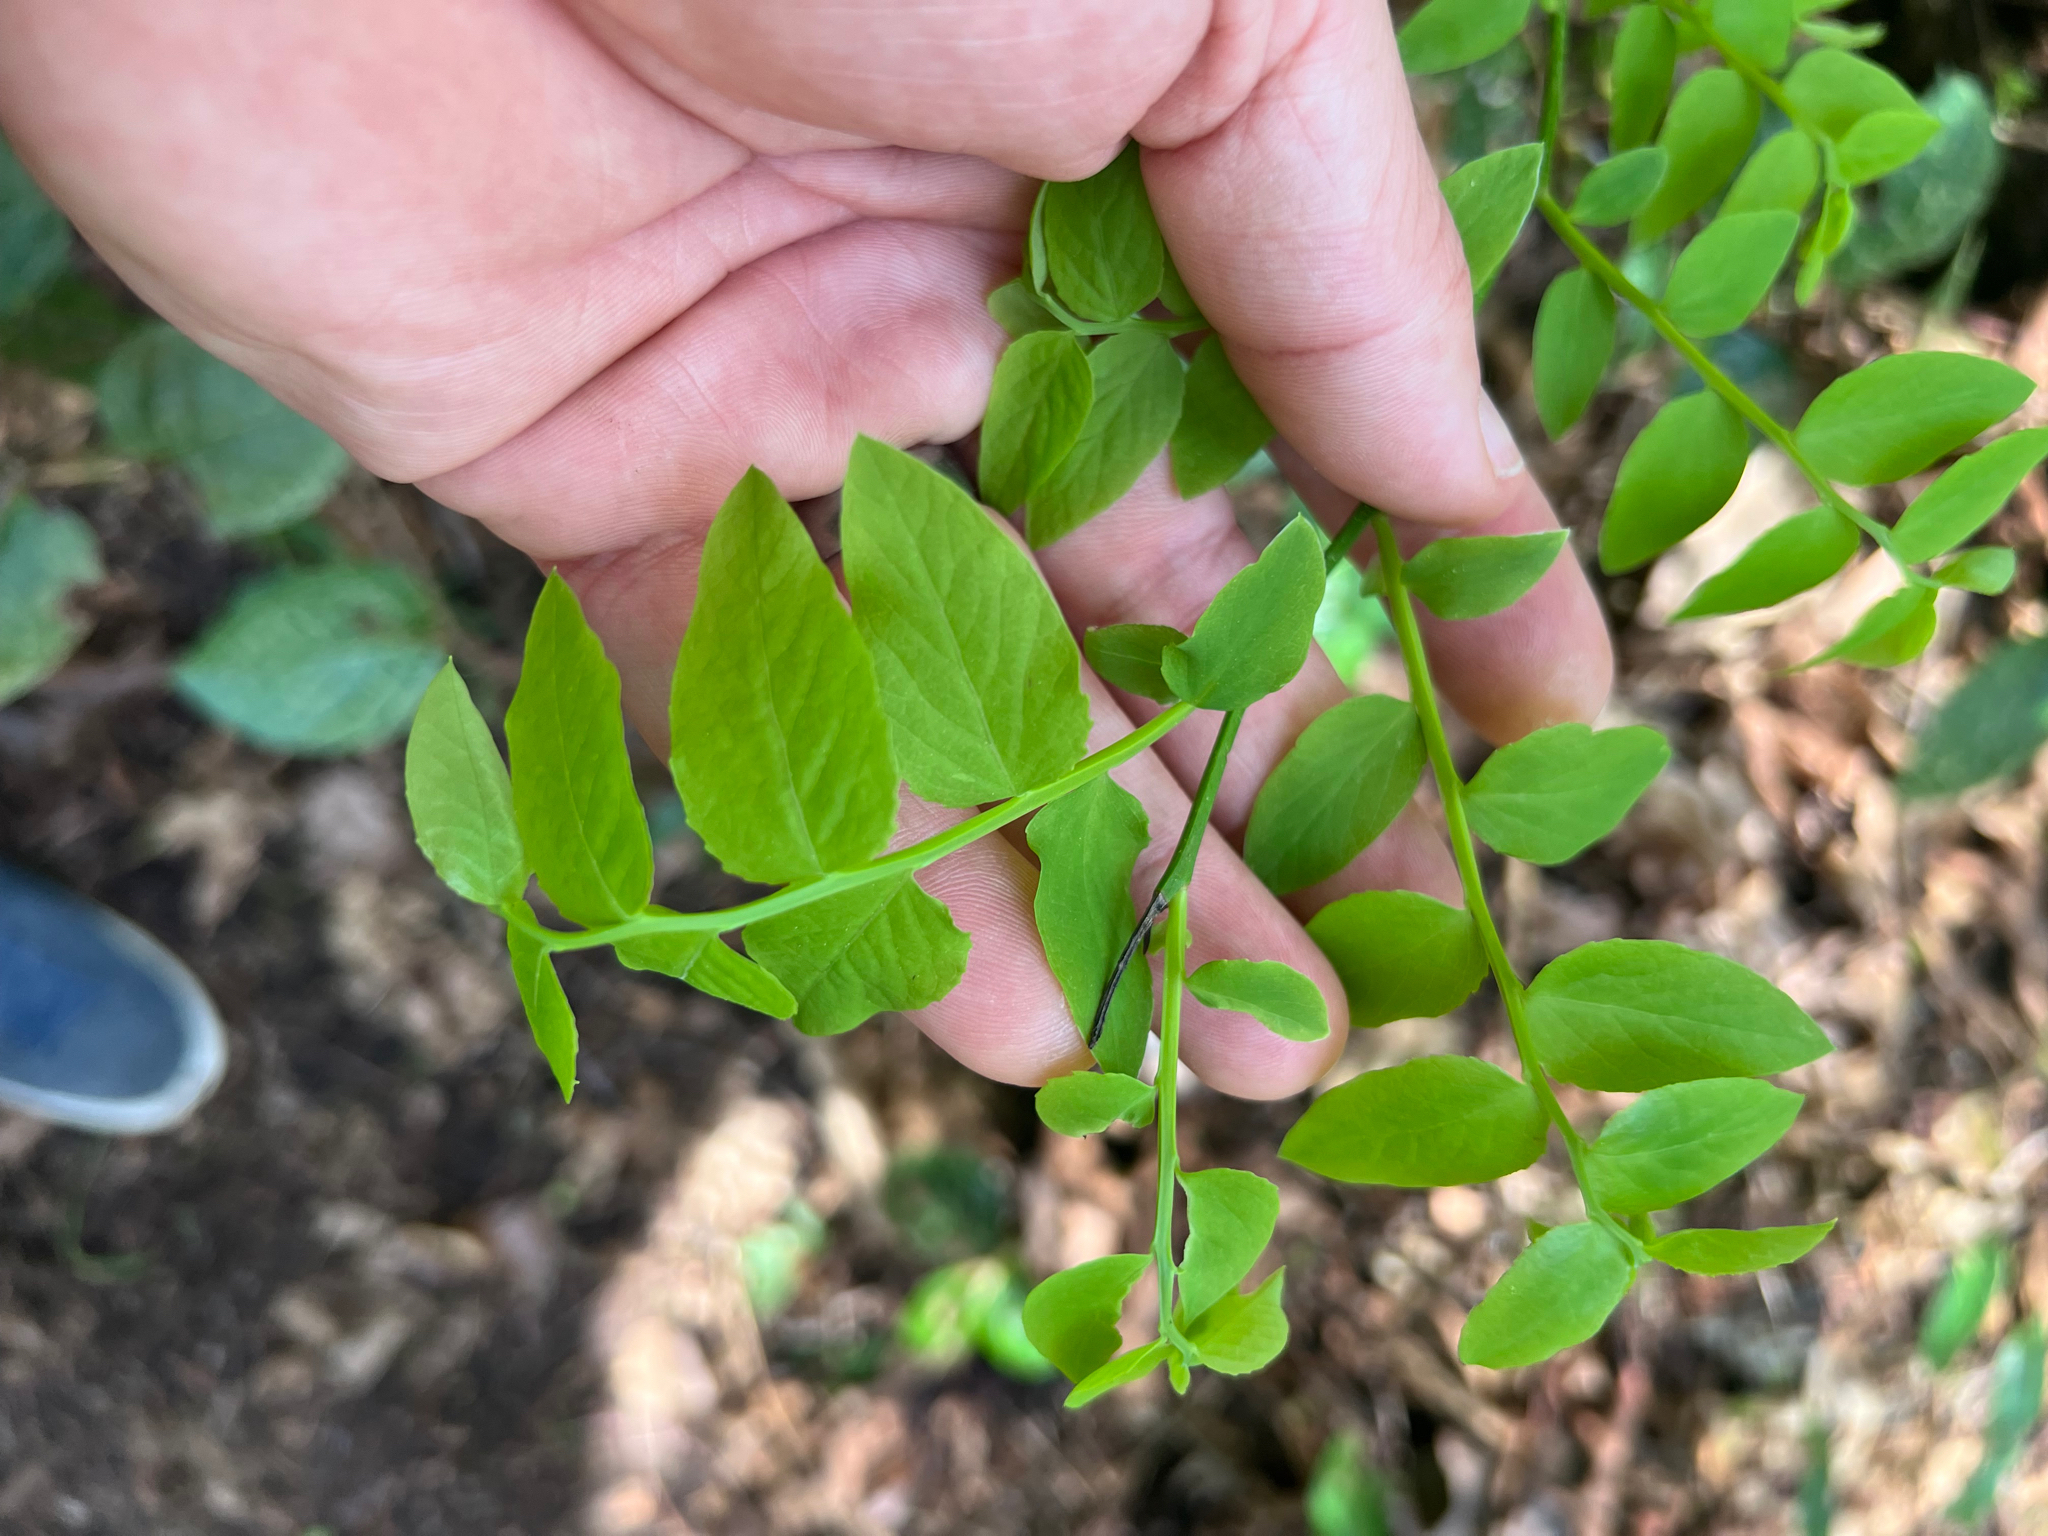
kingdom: Plantae
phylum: Tracheophyta
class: Magnoliopsida
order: Ericales
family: Ericaceae
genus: Vaccinium
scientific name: Vaccinium parvifolium
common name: Red-huckleberry
